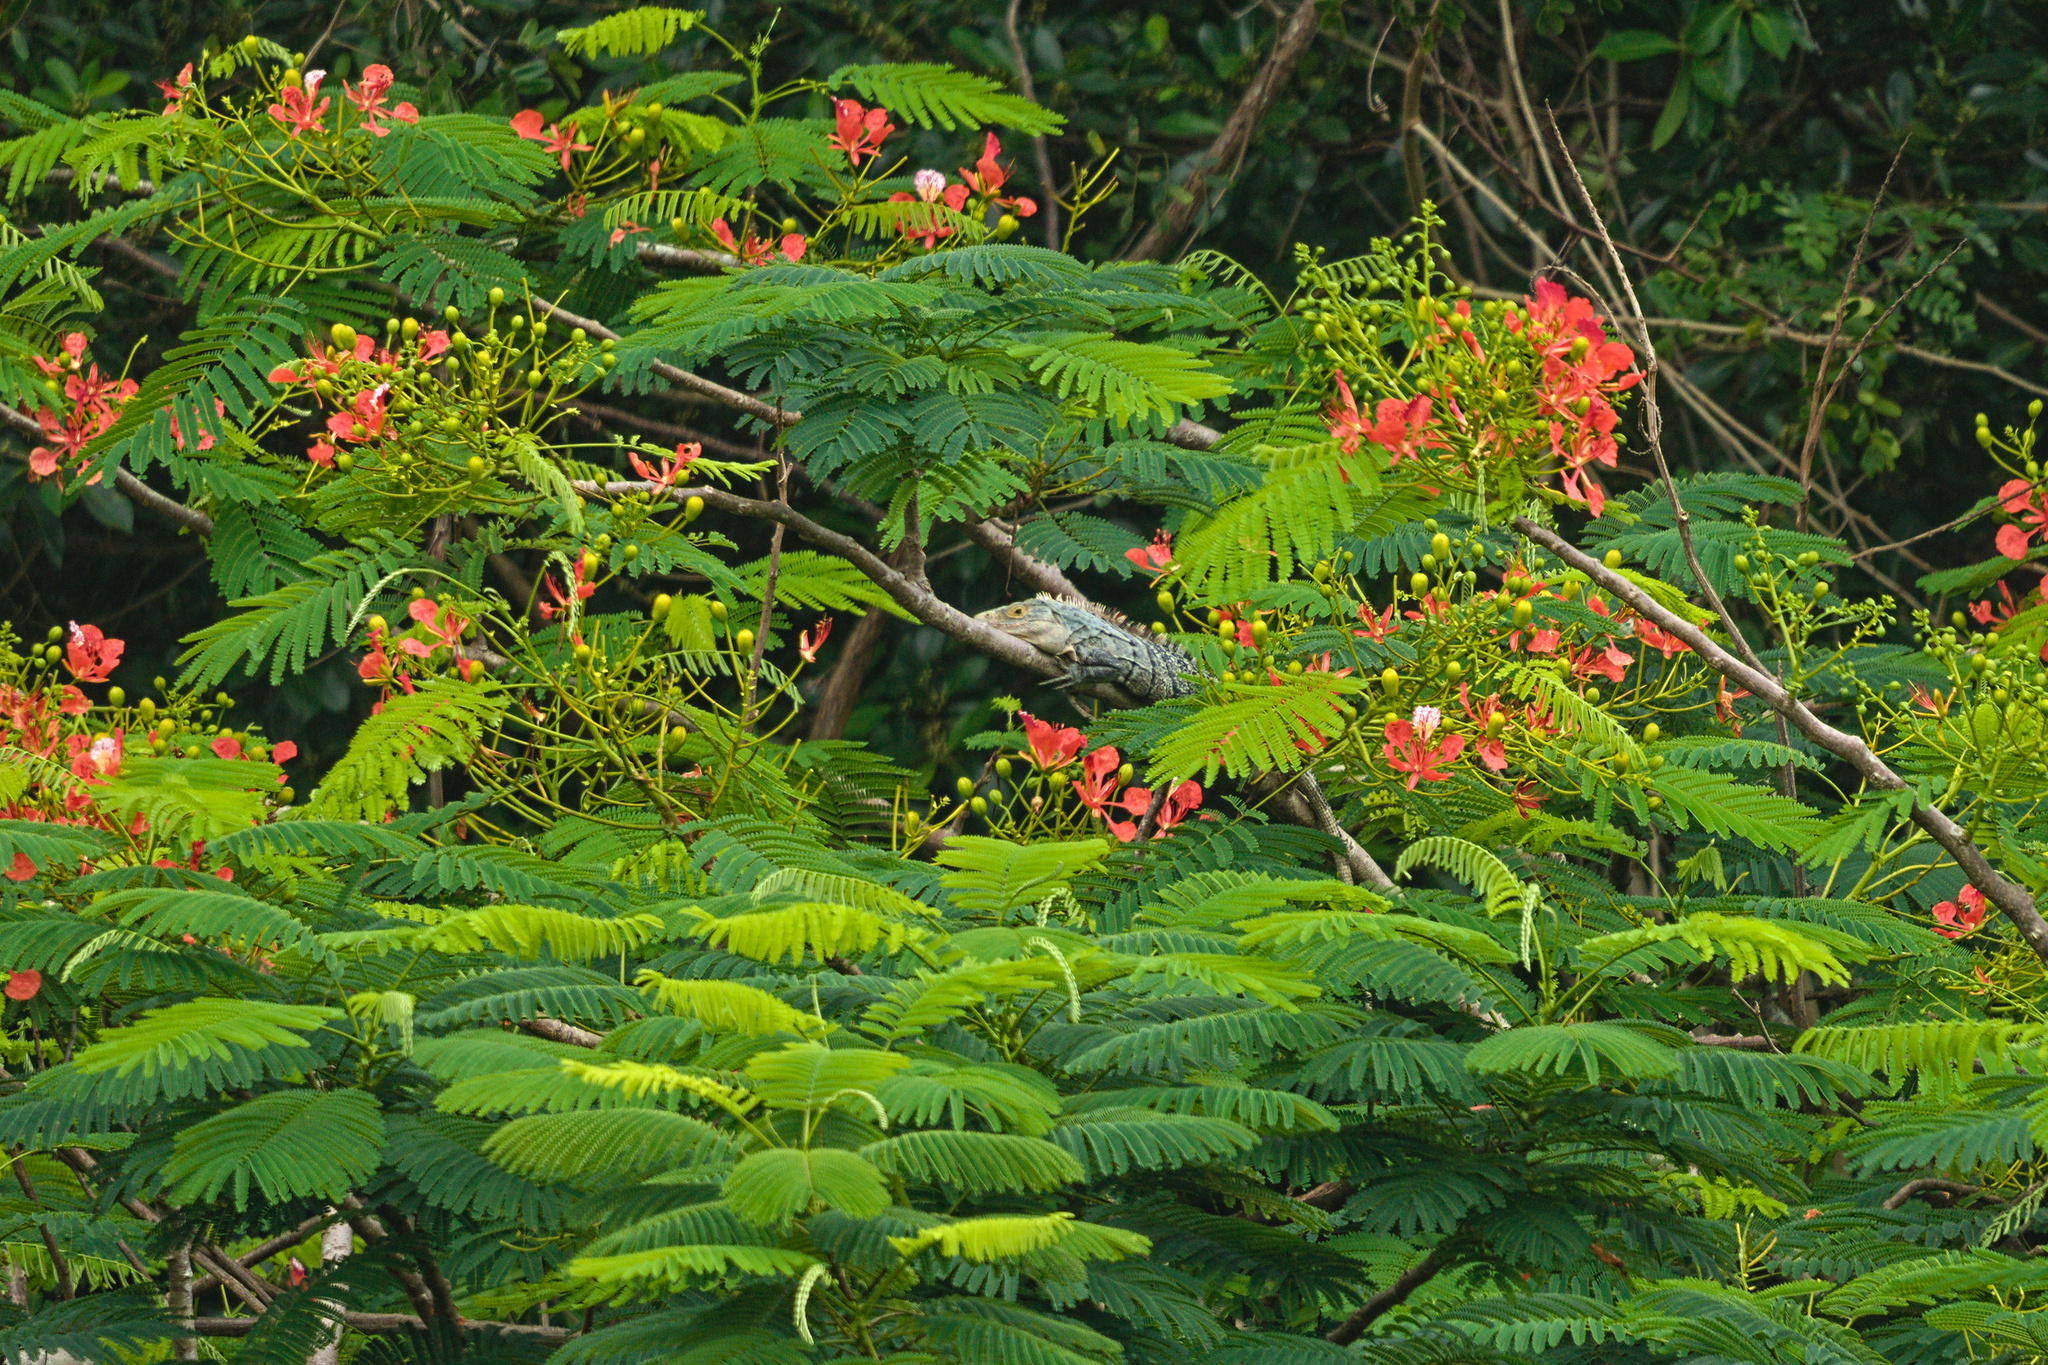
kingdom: Animalia
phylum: Chordata
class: Squamata
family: Iguanidae
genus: Ctenosaura
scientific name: Ctenosaura similis
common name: Black spiny-tailed iguana
